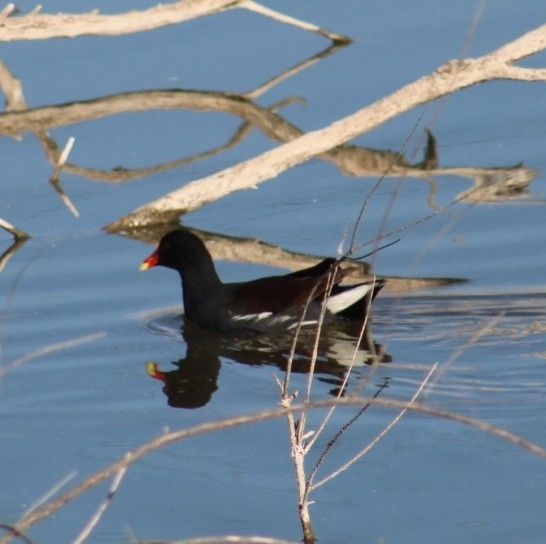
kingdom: Animalia
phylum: Chordata
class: Aves
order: Gruiformes
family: Rallidae
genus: Gallinula
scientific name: Gallinula chloropus
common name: Common moorhen
